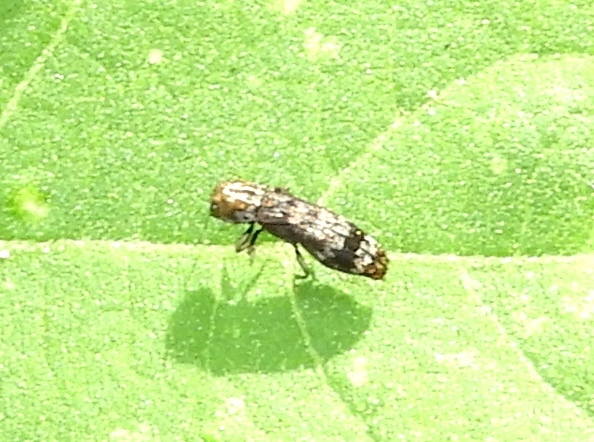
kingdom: Animalia
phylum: Arthropoda
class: Insecta
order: Coleoptera
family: Buprestidae
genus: Agrilus
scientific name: Agrilus
